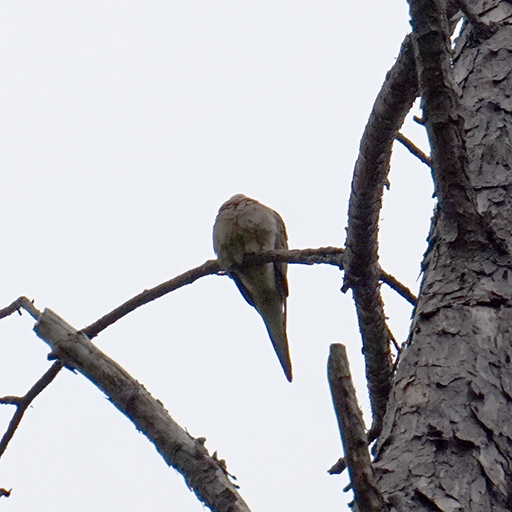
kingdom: Animalia
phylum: Chordata
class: Aves
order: Columbiformes
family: Columbidae
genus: Zenaida
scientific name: Zenaida macroura
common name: Mourning dove
